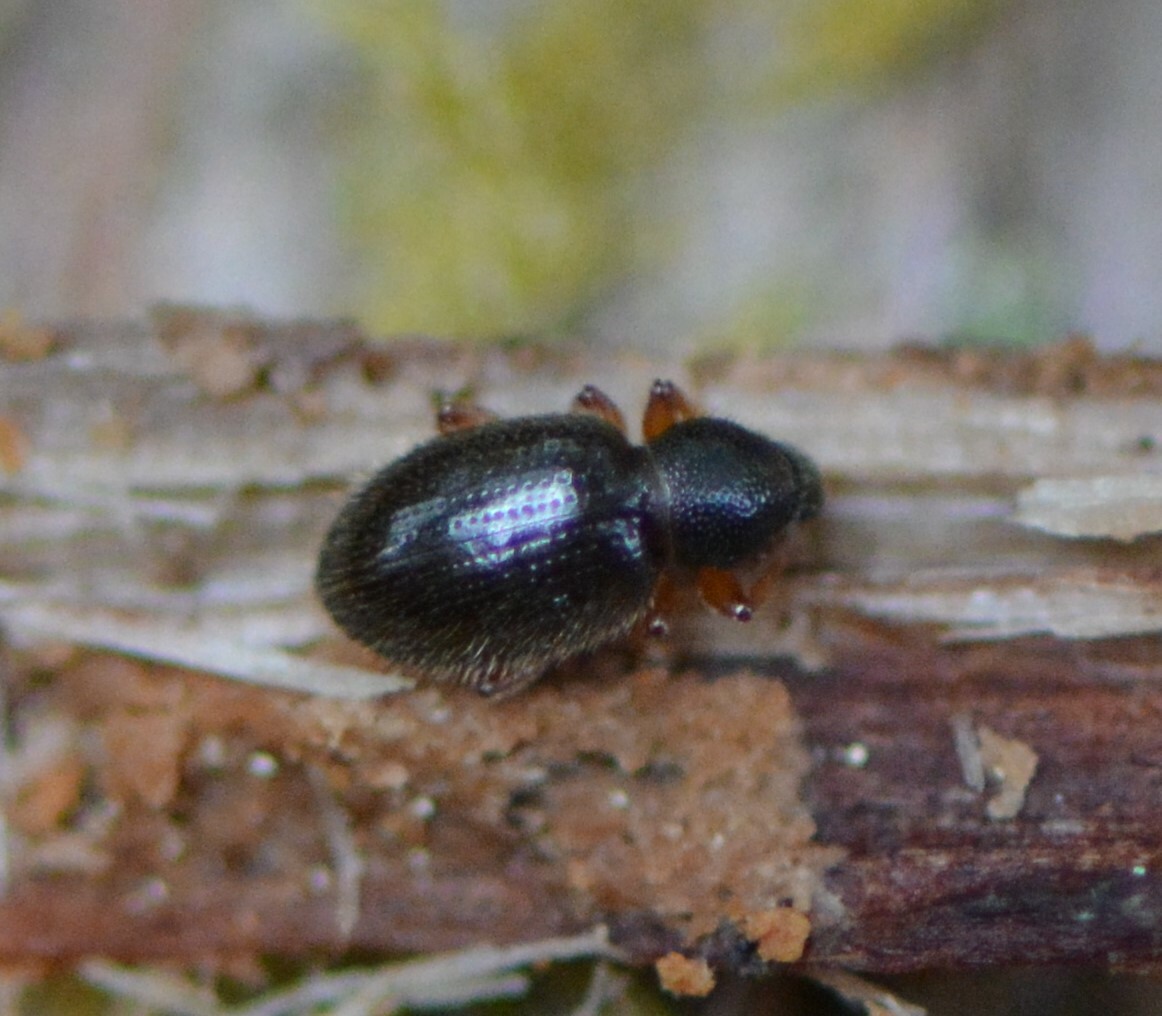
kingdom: Animalia
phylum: Arthropoda
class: Insecta
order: Coleoptera
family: Curculionidae
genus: Exomias
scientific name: Exomias pellucidus
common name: Hairy spider weevil
